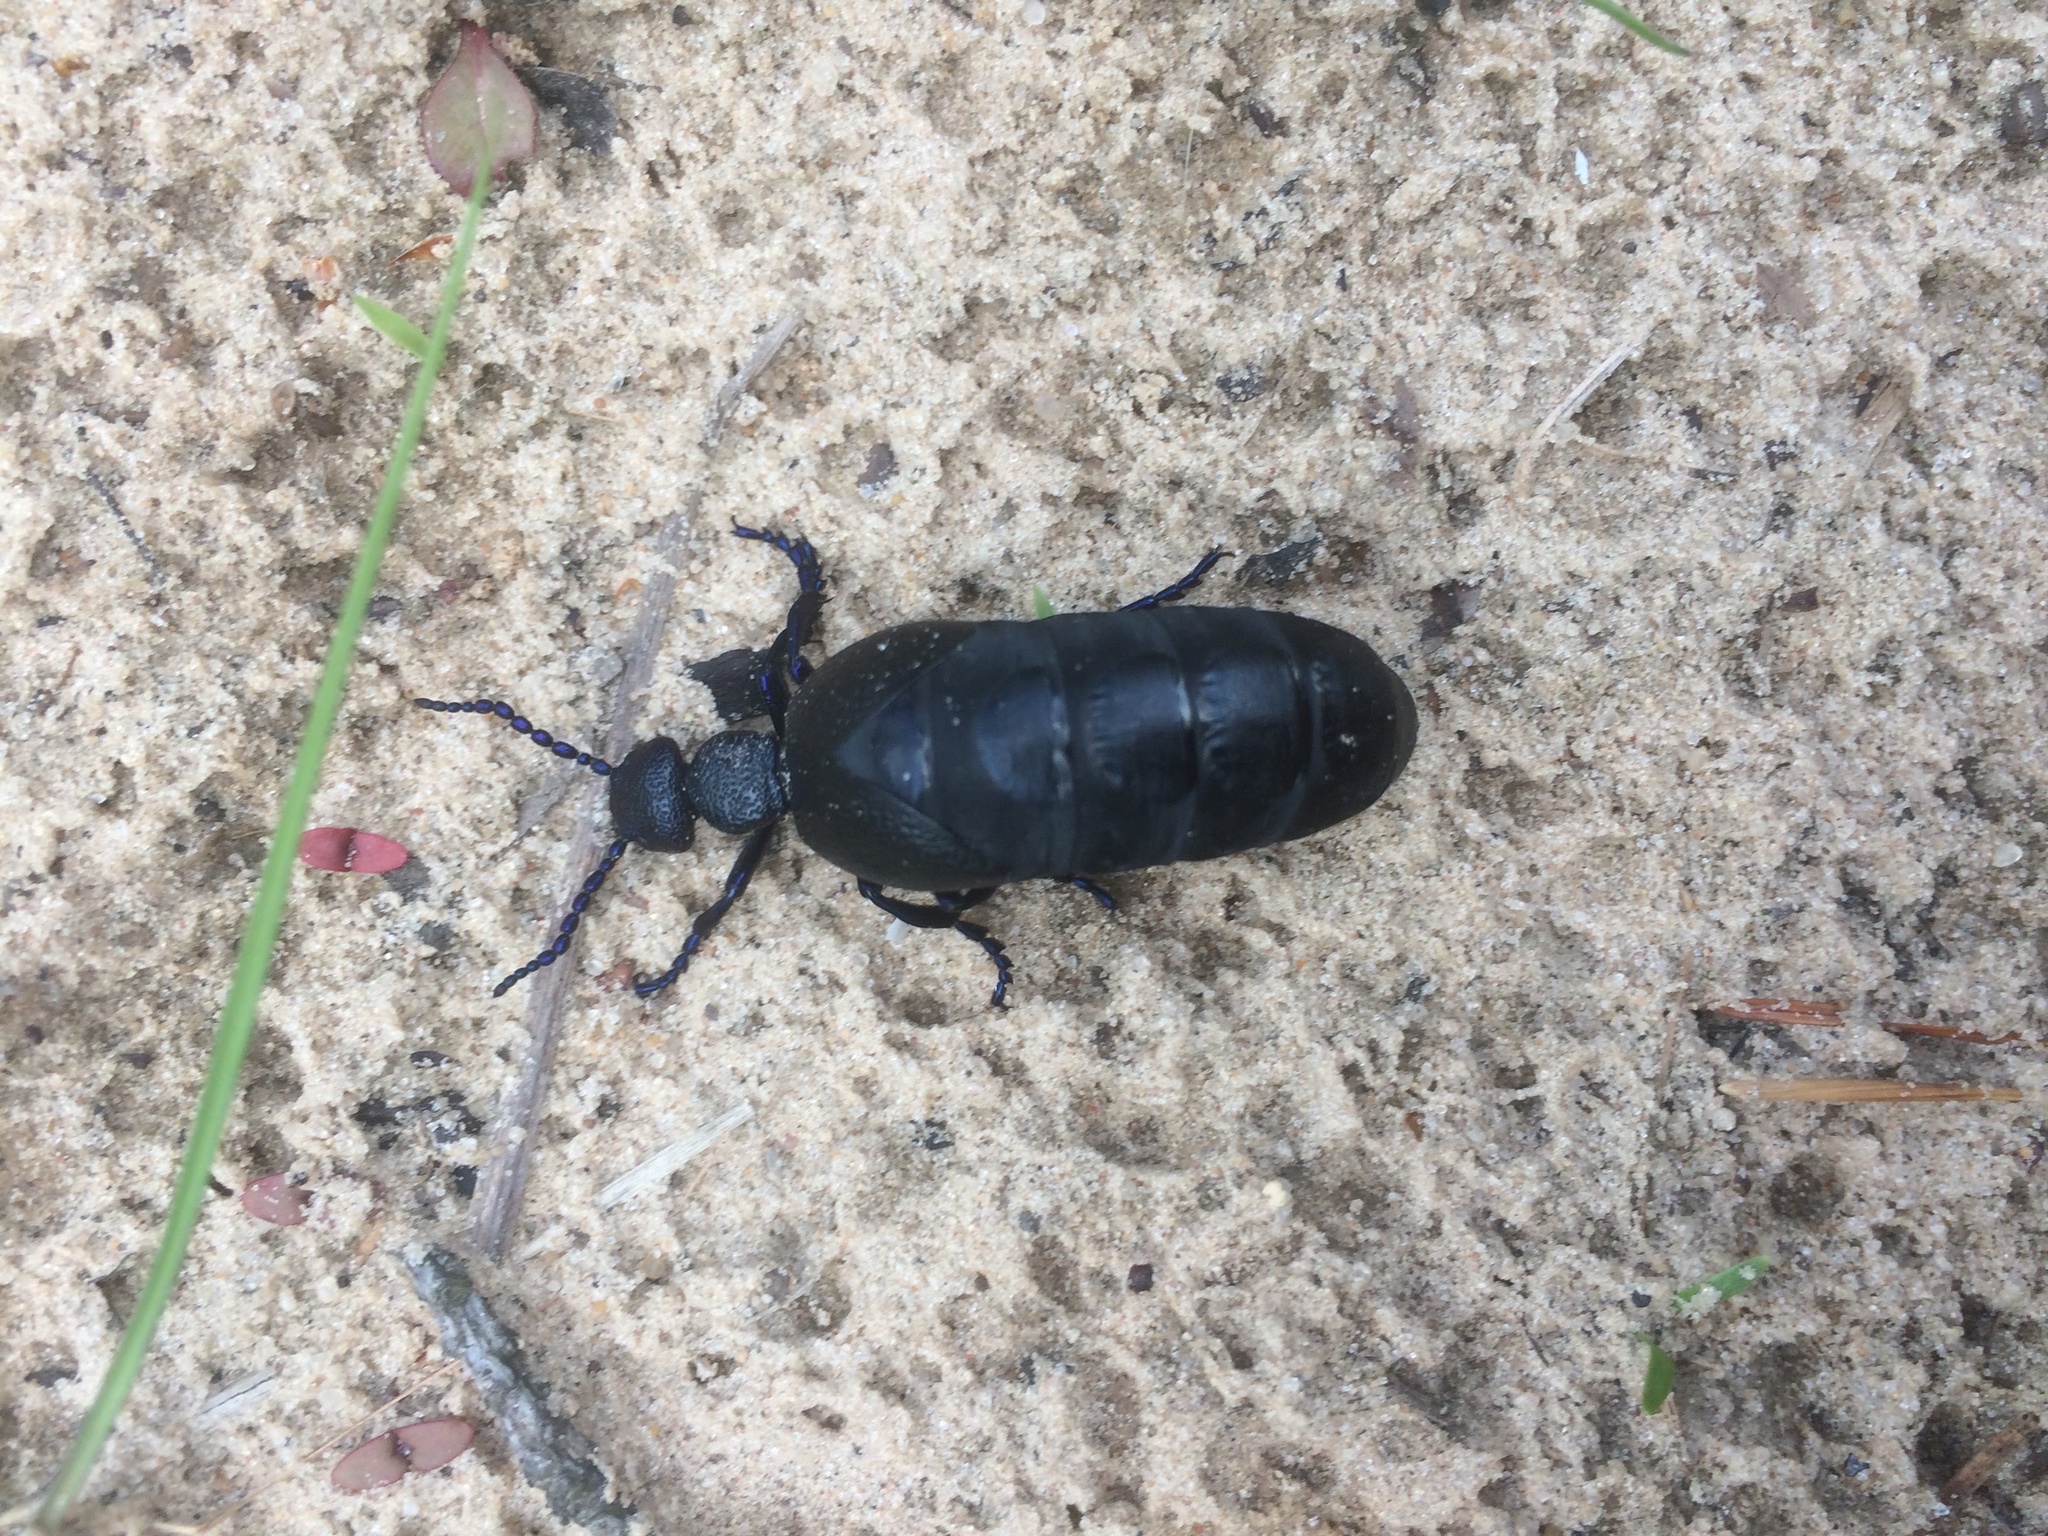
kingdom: Animalia
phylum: Arthropoda
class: Insecta
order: Coleoptera
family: Meloidae
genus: Meloe
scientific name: Meloe proscarabaeus
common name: Black oil-beetle
